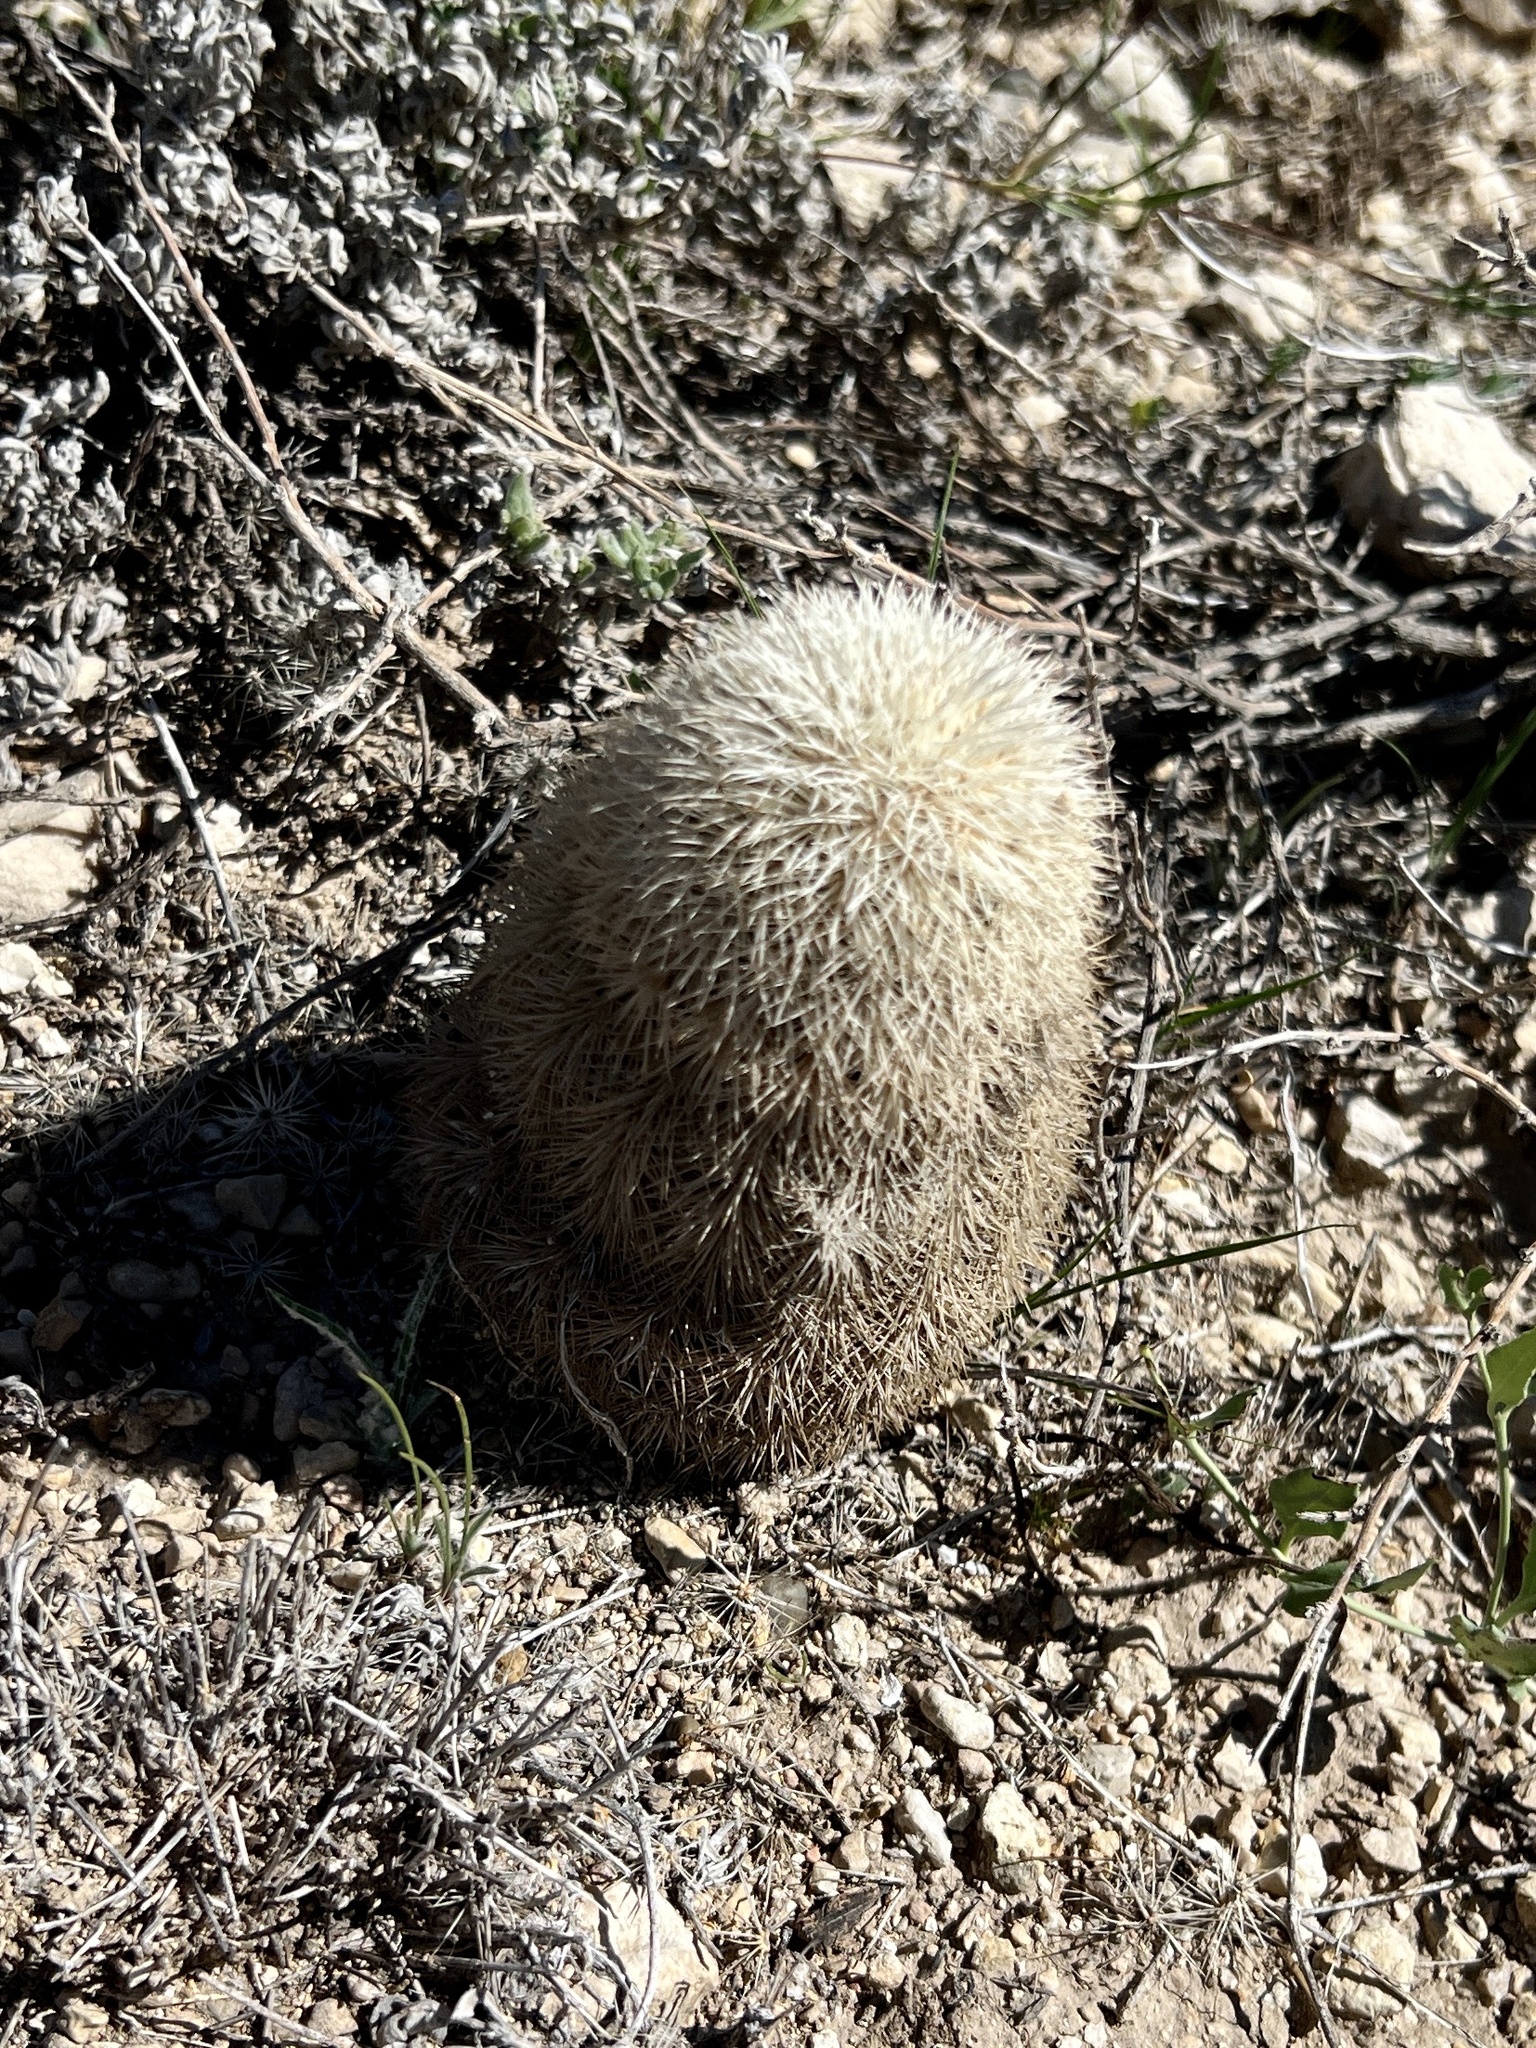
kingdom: Plantae
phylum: Tracheophyta
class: Magnoliopsida
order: Caryophyllales
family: Cactaceae
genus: Echinocereus
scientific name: Echinocereus dasyacanthus
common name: Spiny hedgehog cactus
